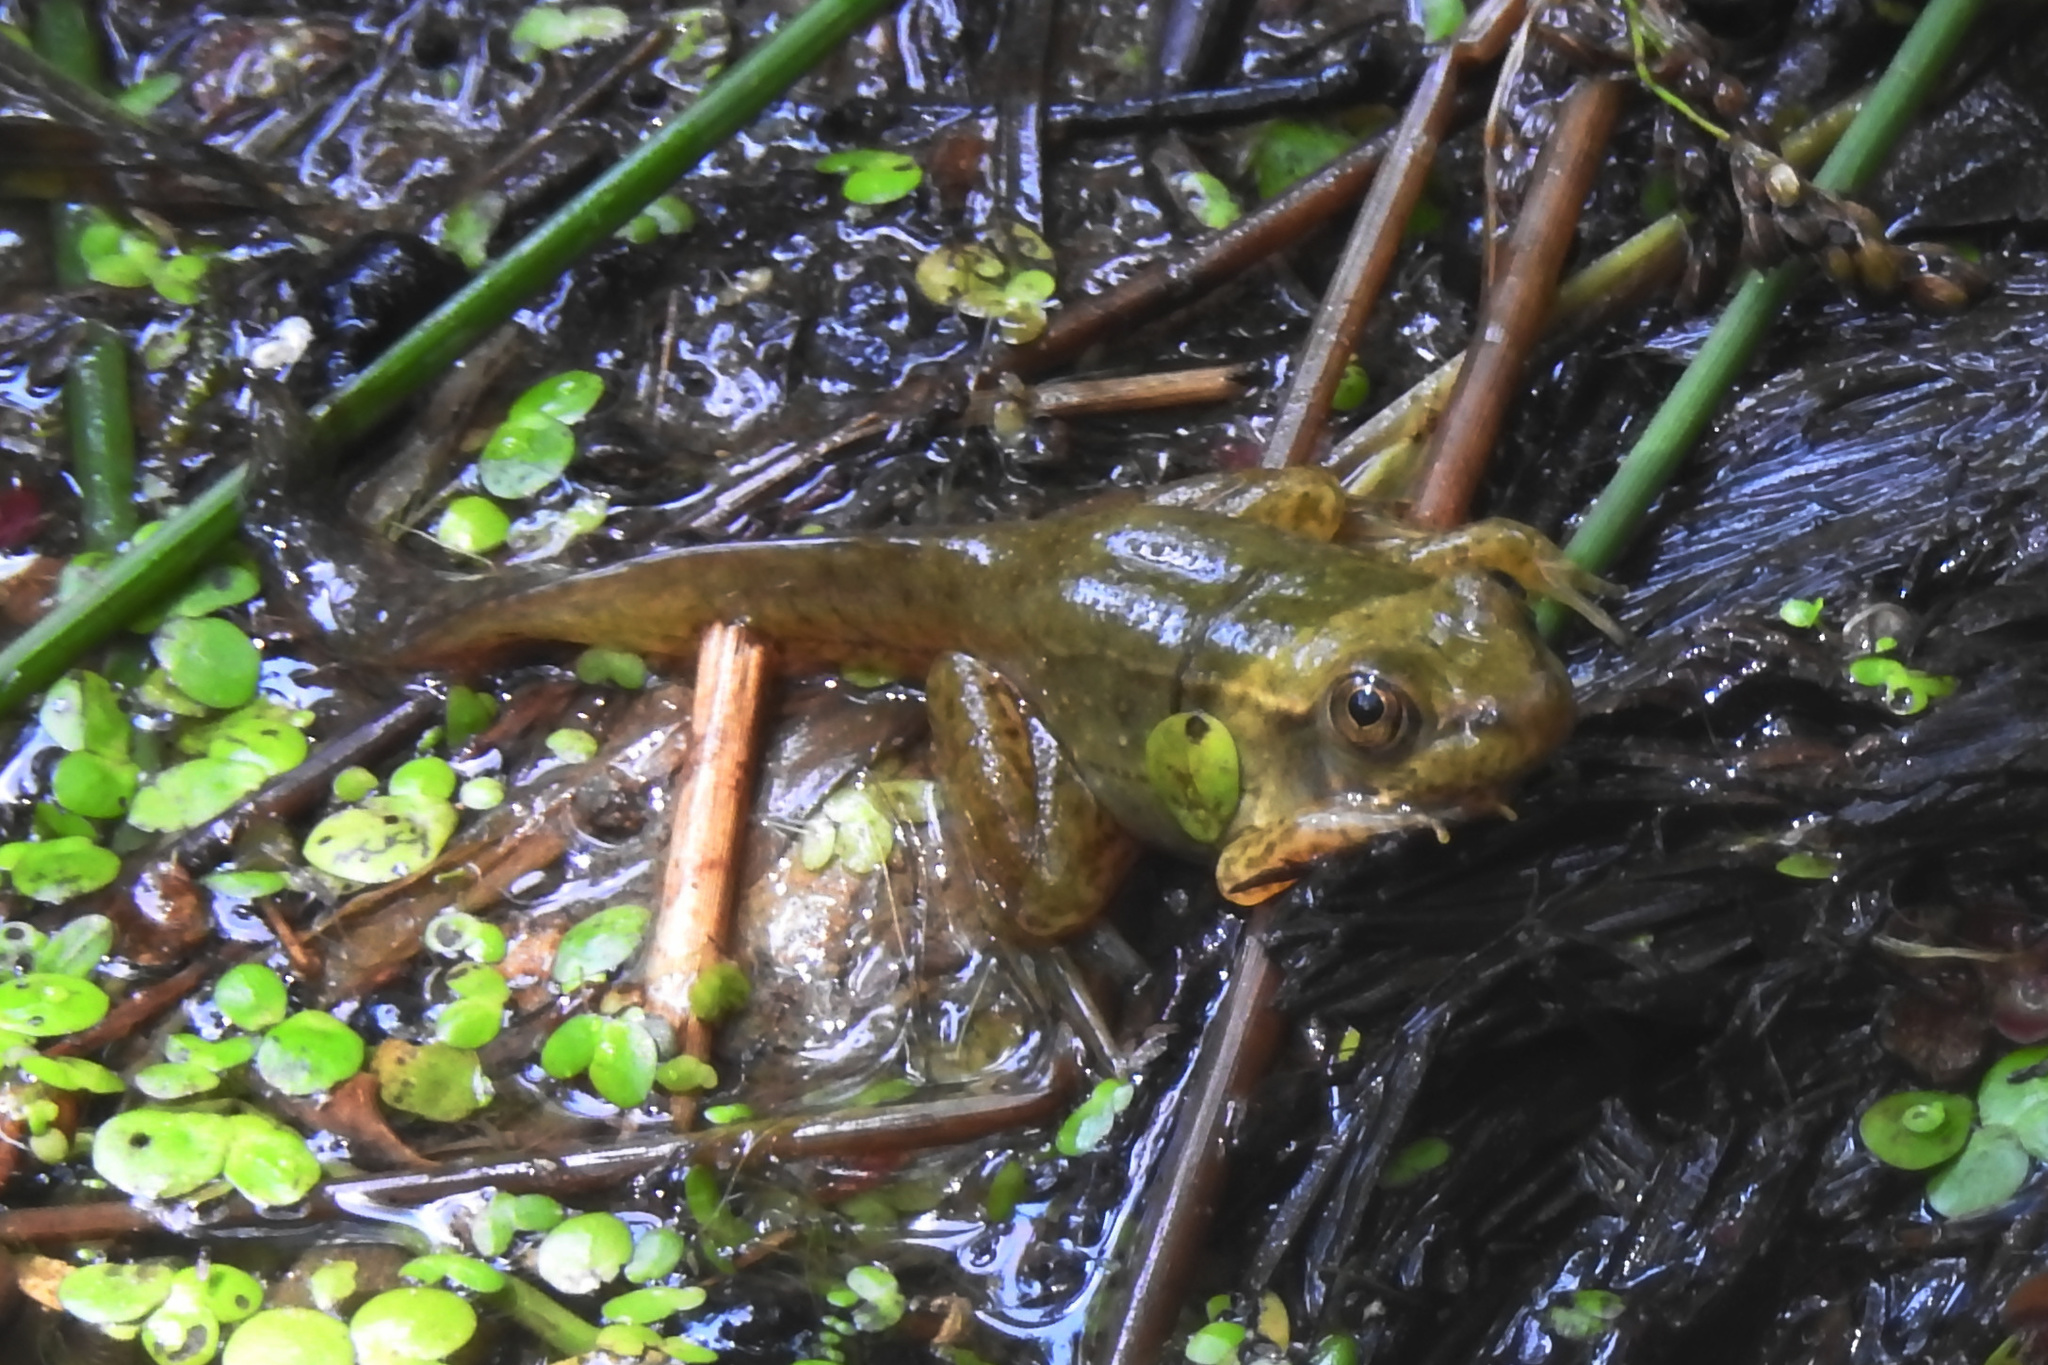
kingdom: Animalia
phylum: Chordata
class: Amphibia
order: Anura
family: Ranidae
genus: Lithobates
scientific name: Lithobates clamitans
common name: Green frog
